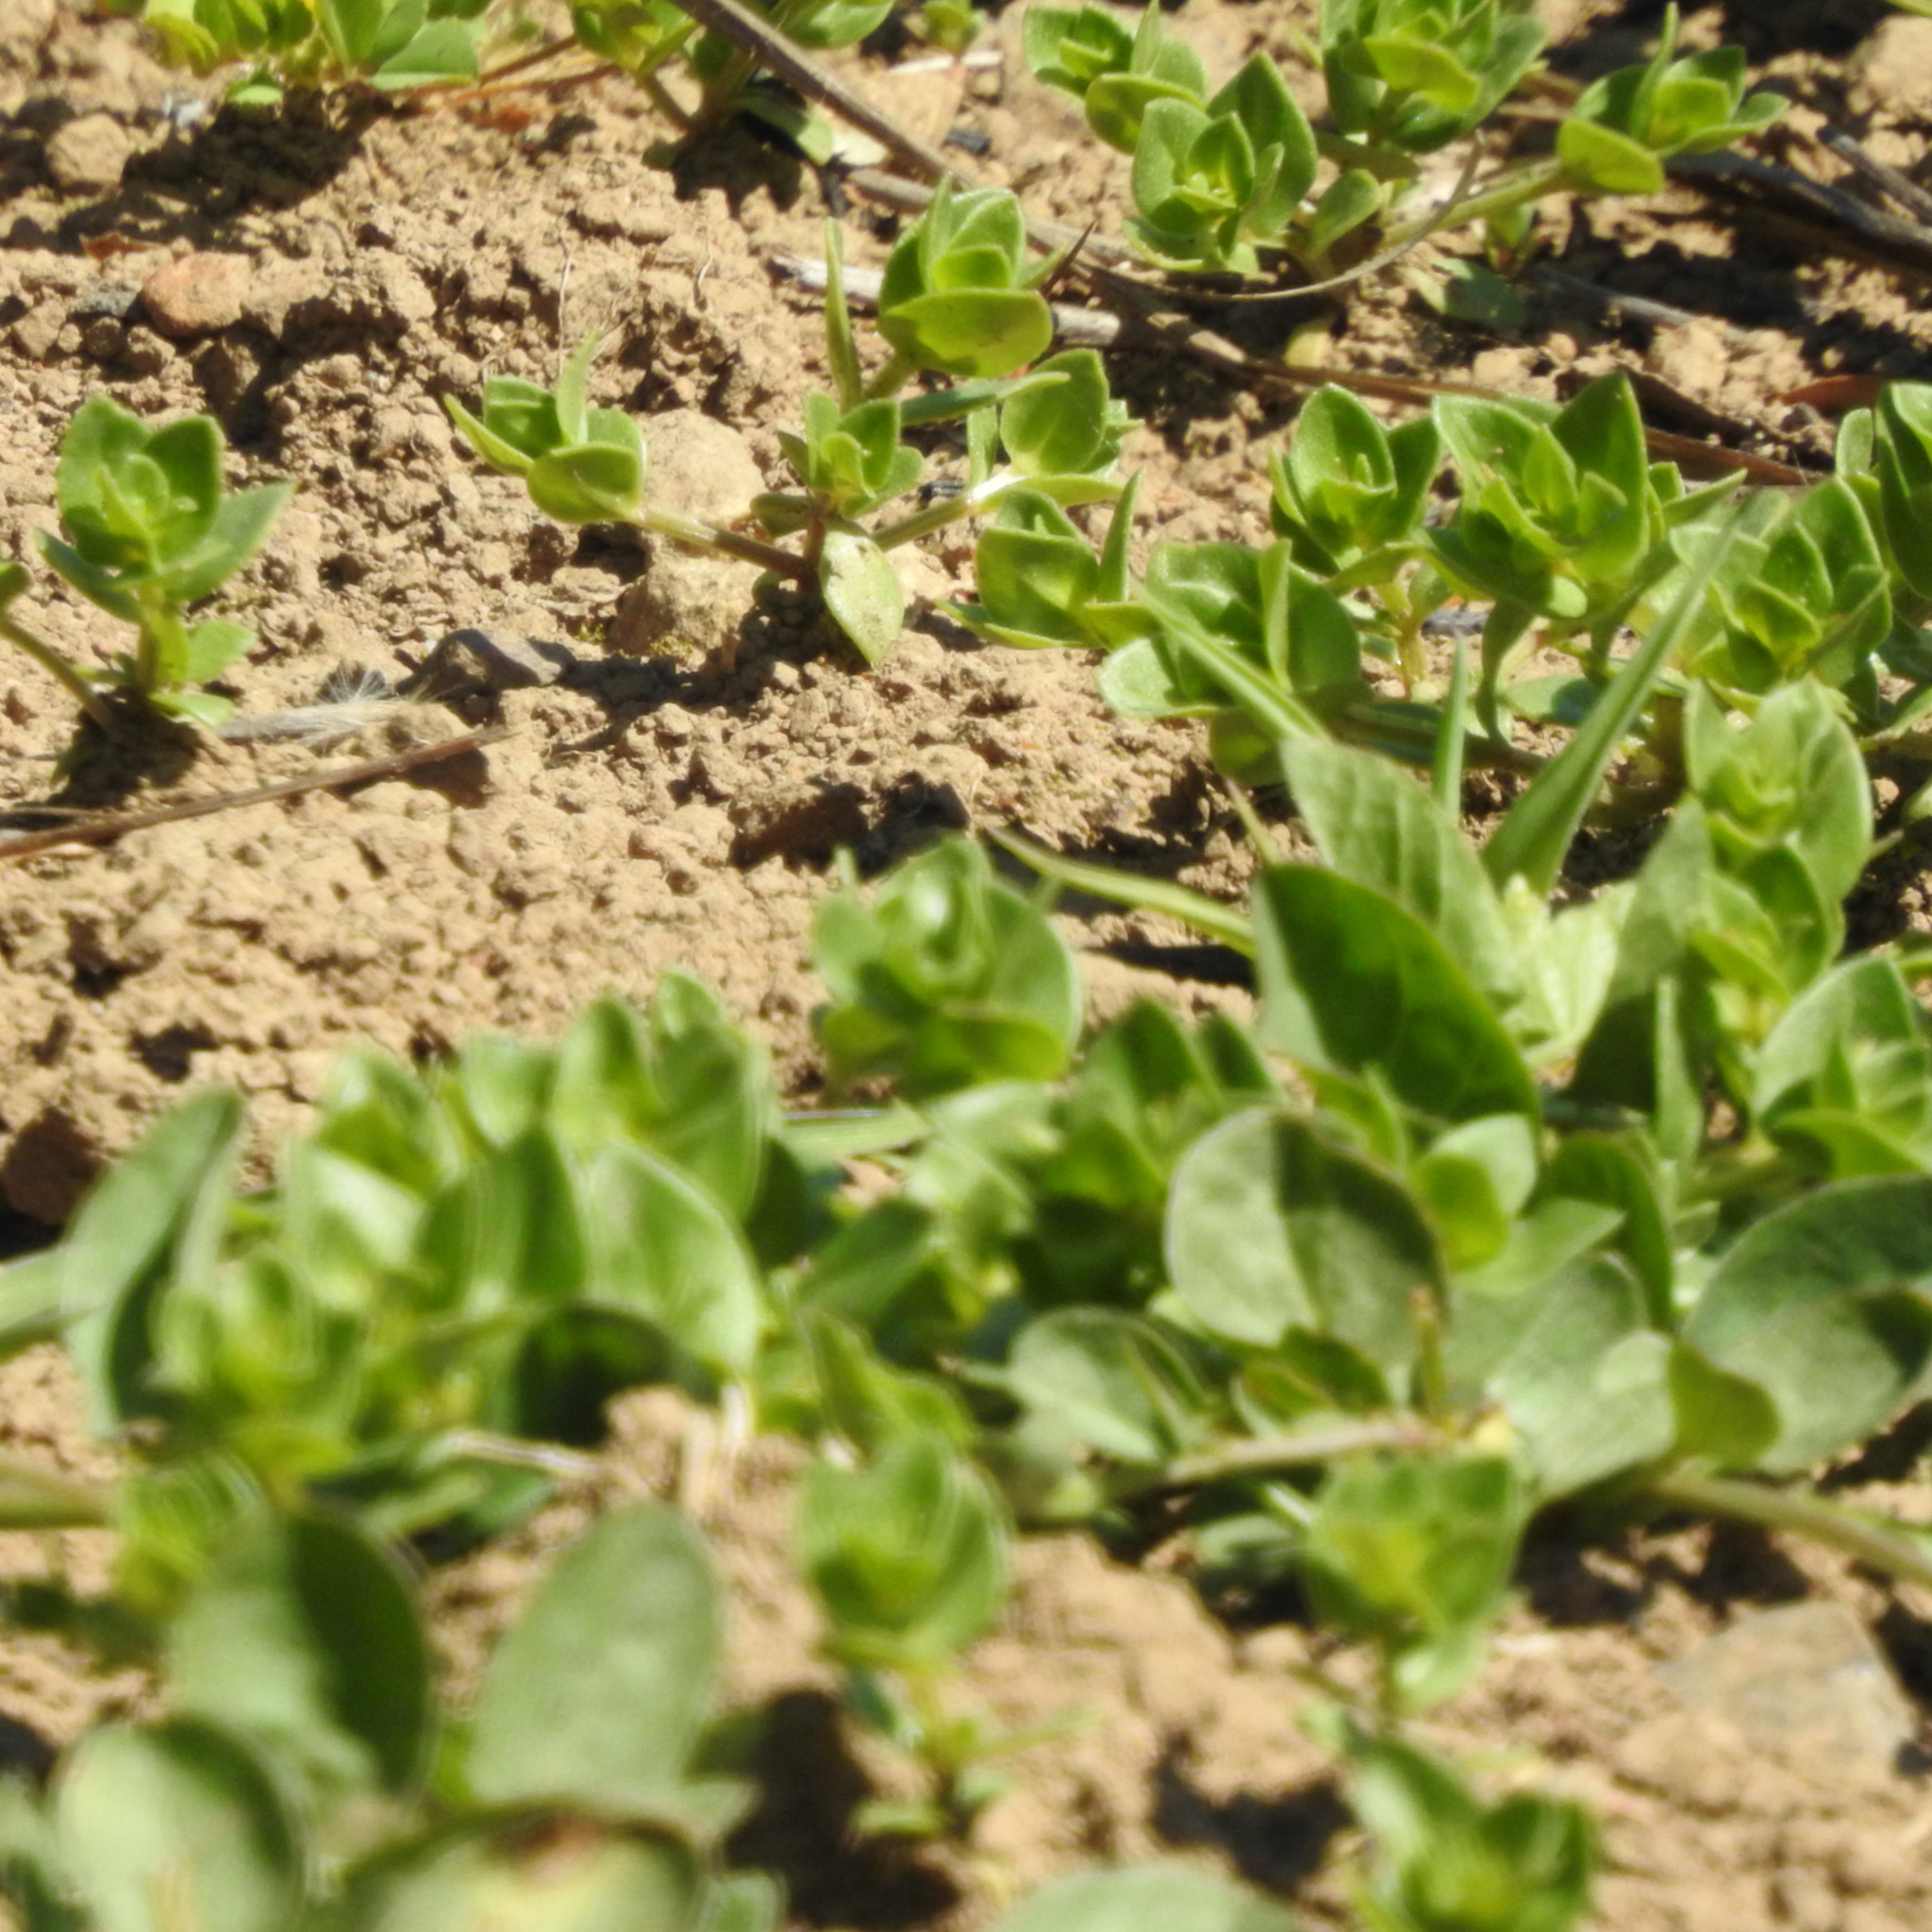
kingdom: Plantae
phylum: Tracheophyta
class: Magnoliopsida
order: Ericales
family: Primulaceae
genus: Lysimachia
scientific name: Lysimachia arvensis
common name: Scarlet pimpernel
